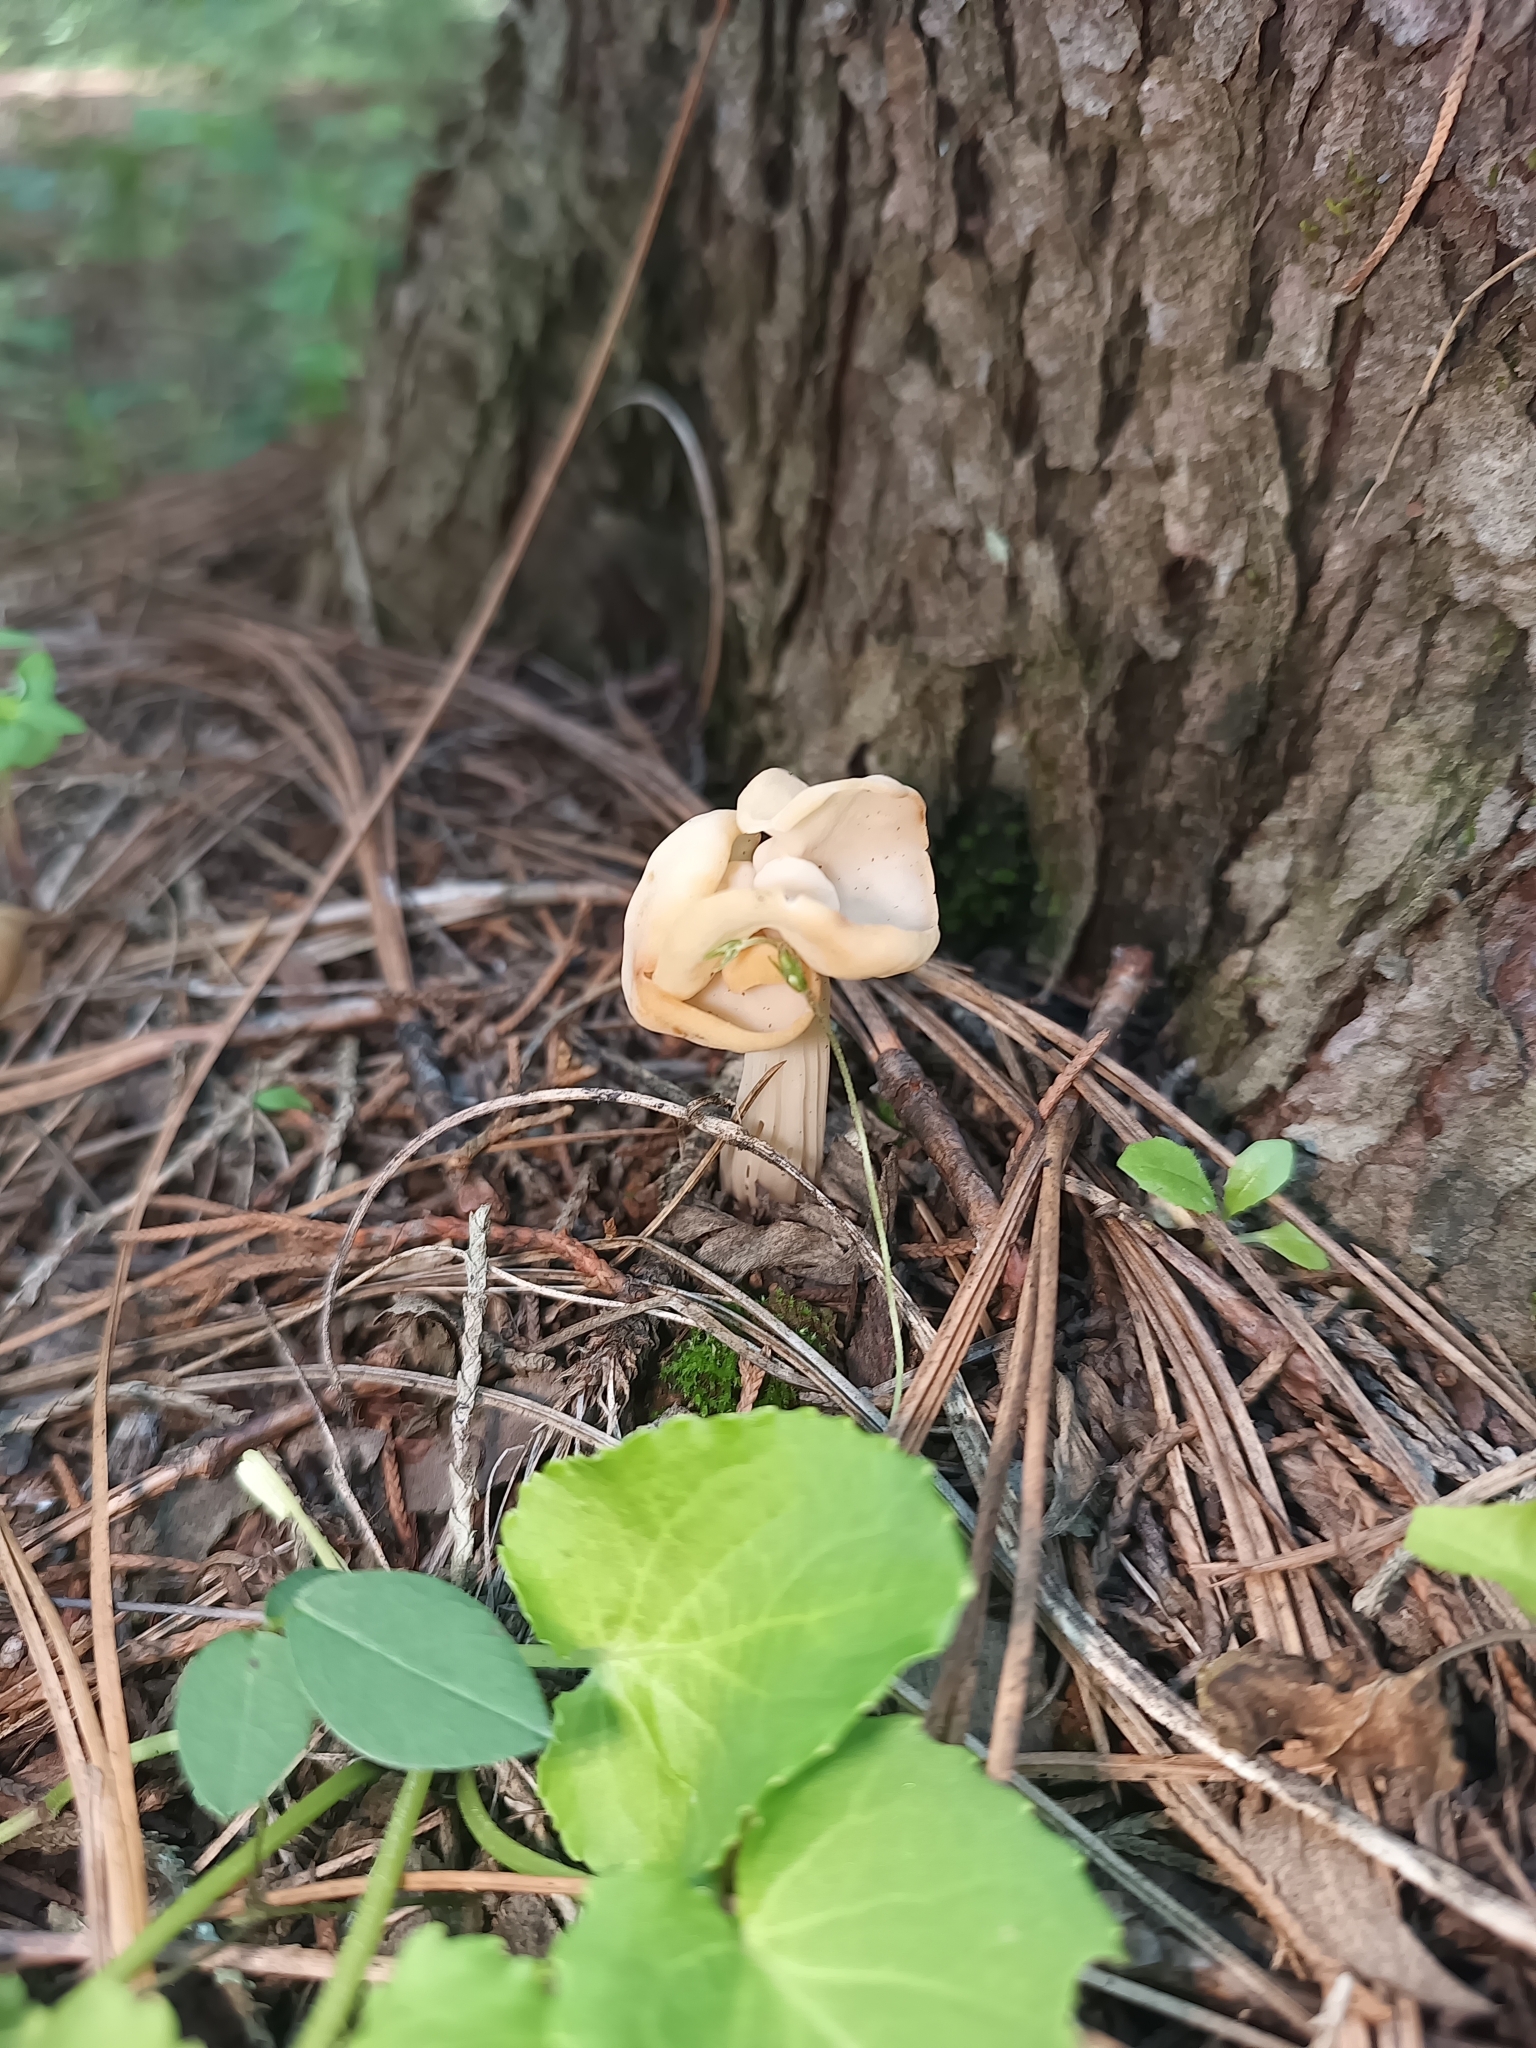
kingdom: Fungi
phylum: Ascomycota
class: Pezizomycetes
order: Pezizales
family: Helvellaceae
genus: Helvella
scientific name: Helvella crispa
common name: White saddle
